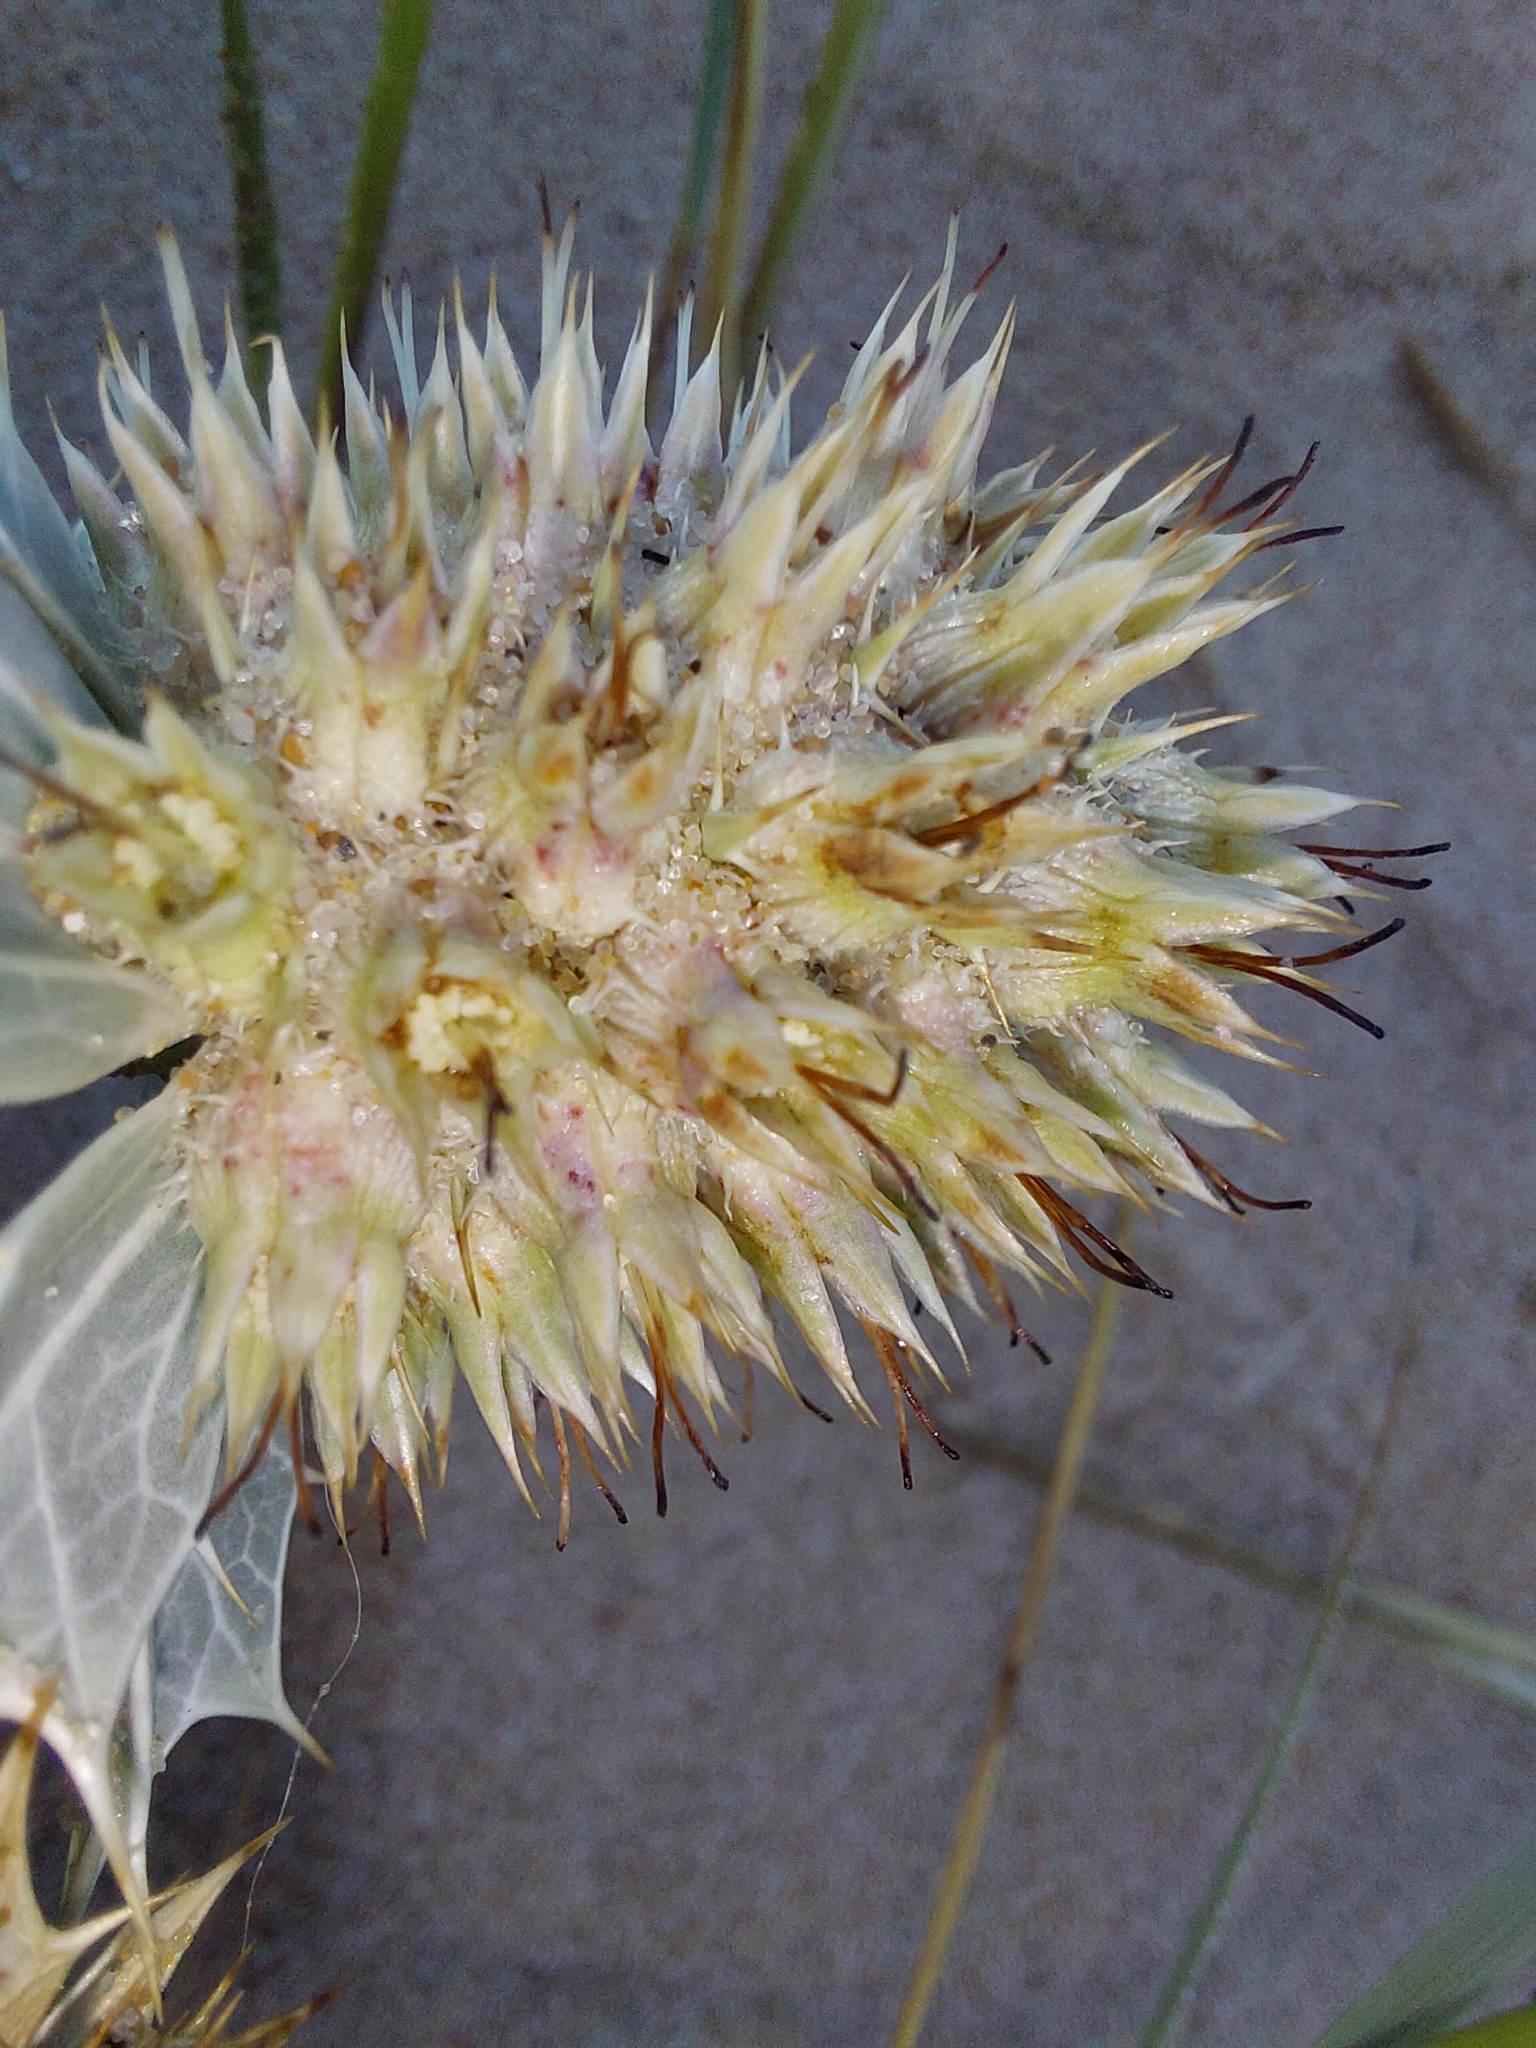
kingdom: Plantae
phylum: Tracheophyta
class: Magnoliopsida
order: Apiales
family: Apiaceae
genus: Eryngium
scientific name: Eryngium maritimum
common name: Sea-holly
